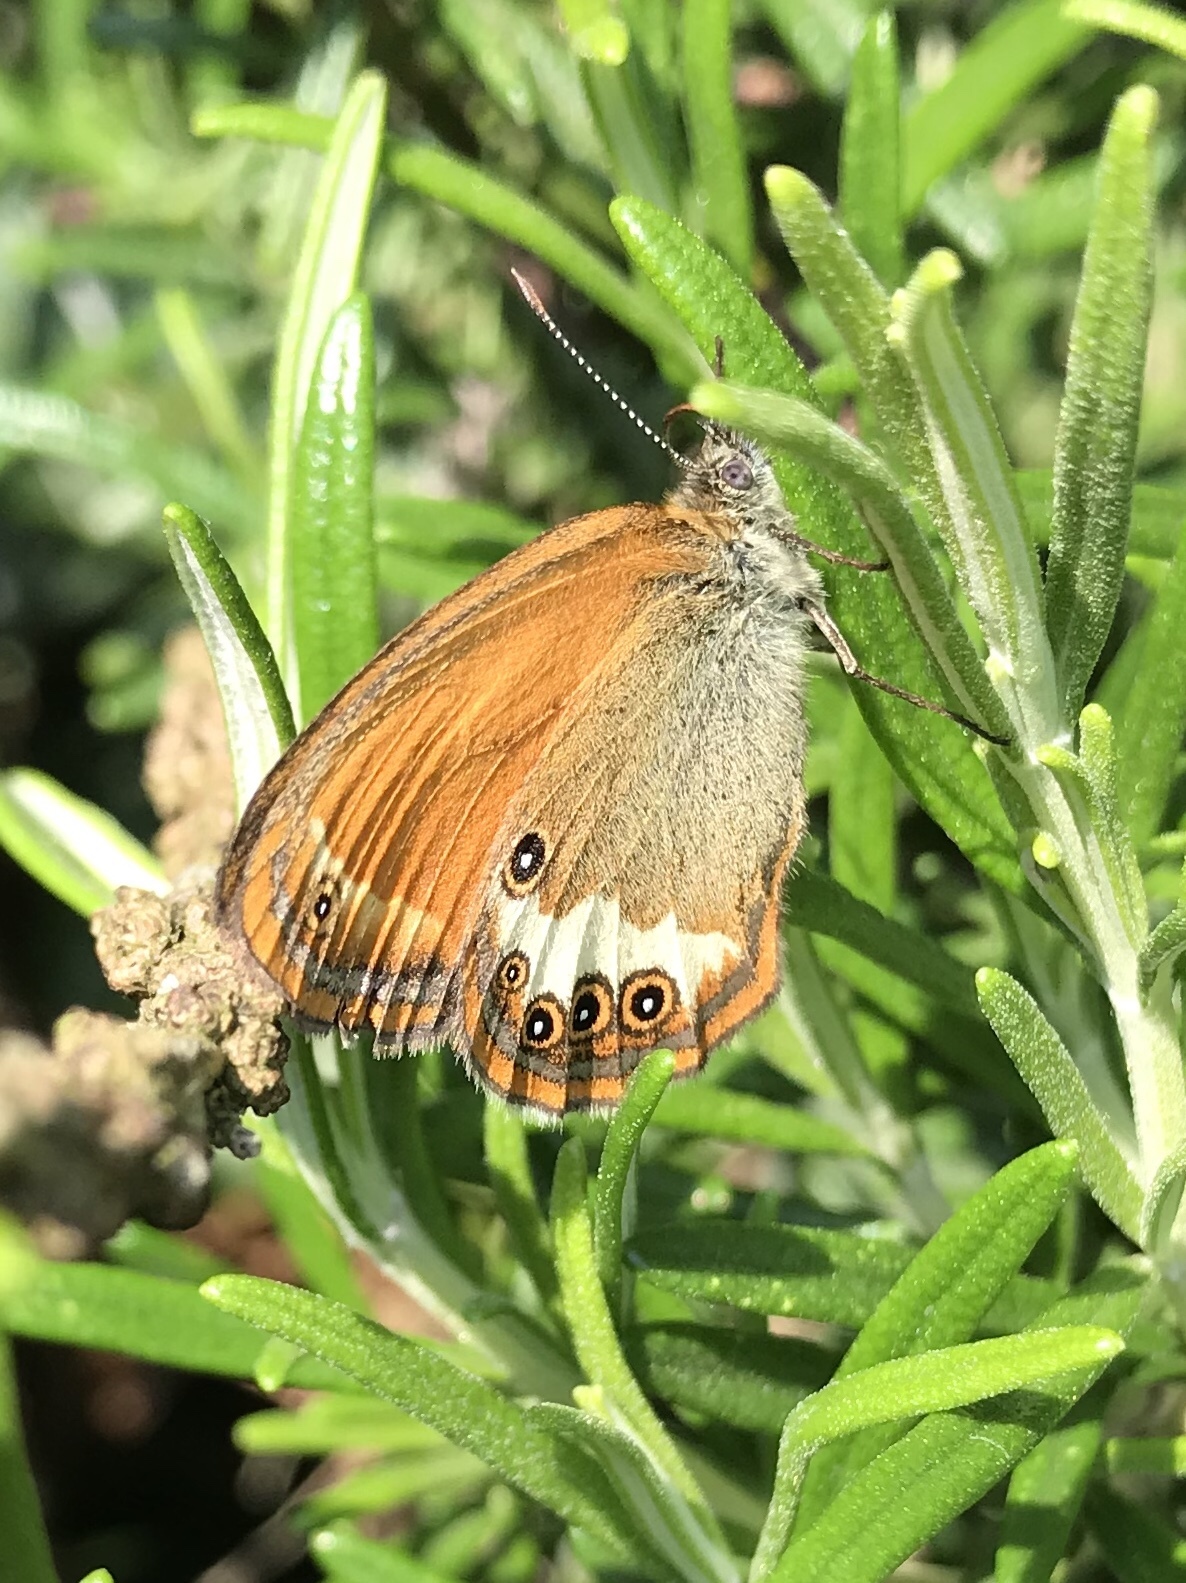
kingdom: Animalia
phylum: Arthropoda
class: Insecta
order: Lepidoptera
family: Nymphalidae
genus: Coenonympha
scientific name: Coenonympha arcania
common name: Pearly heath
